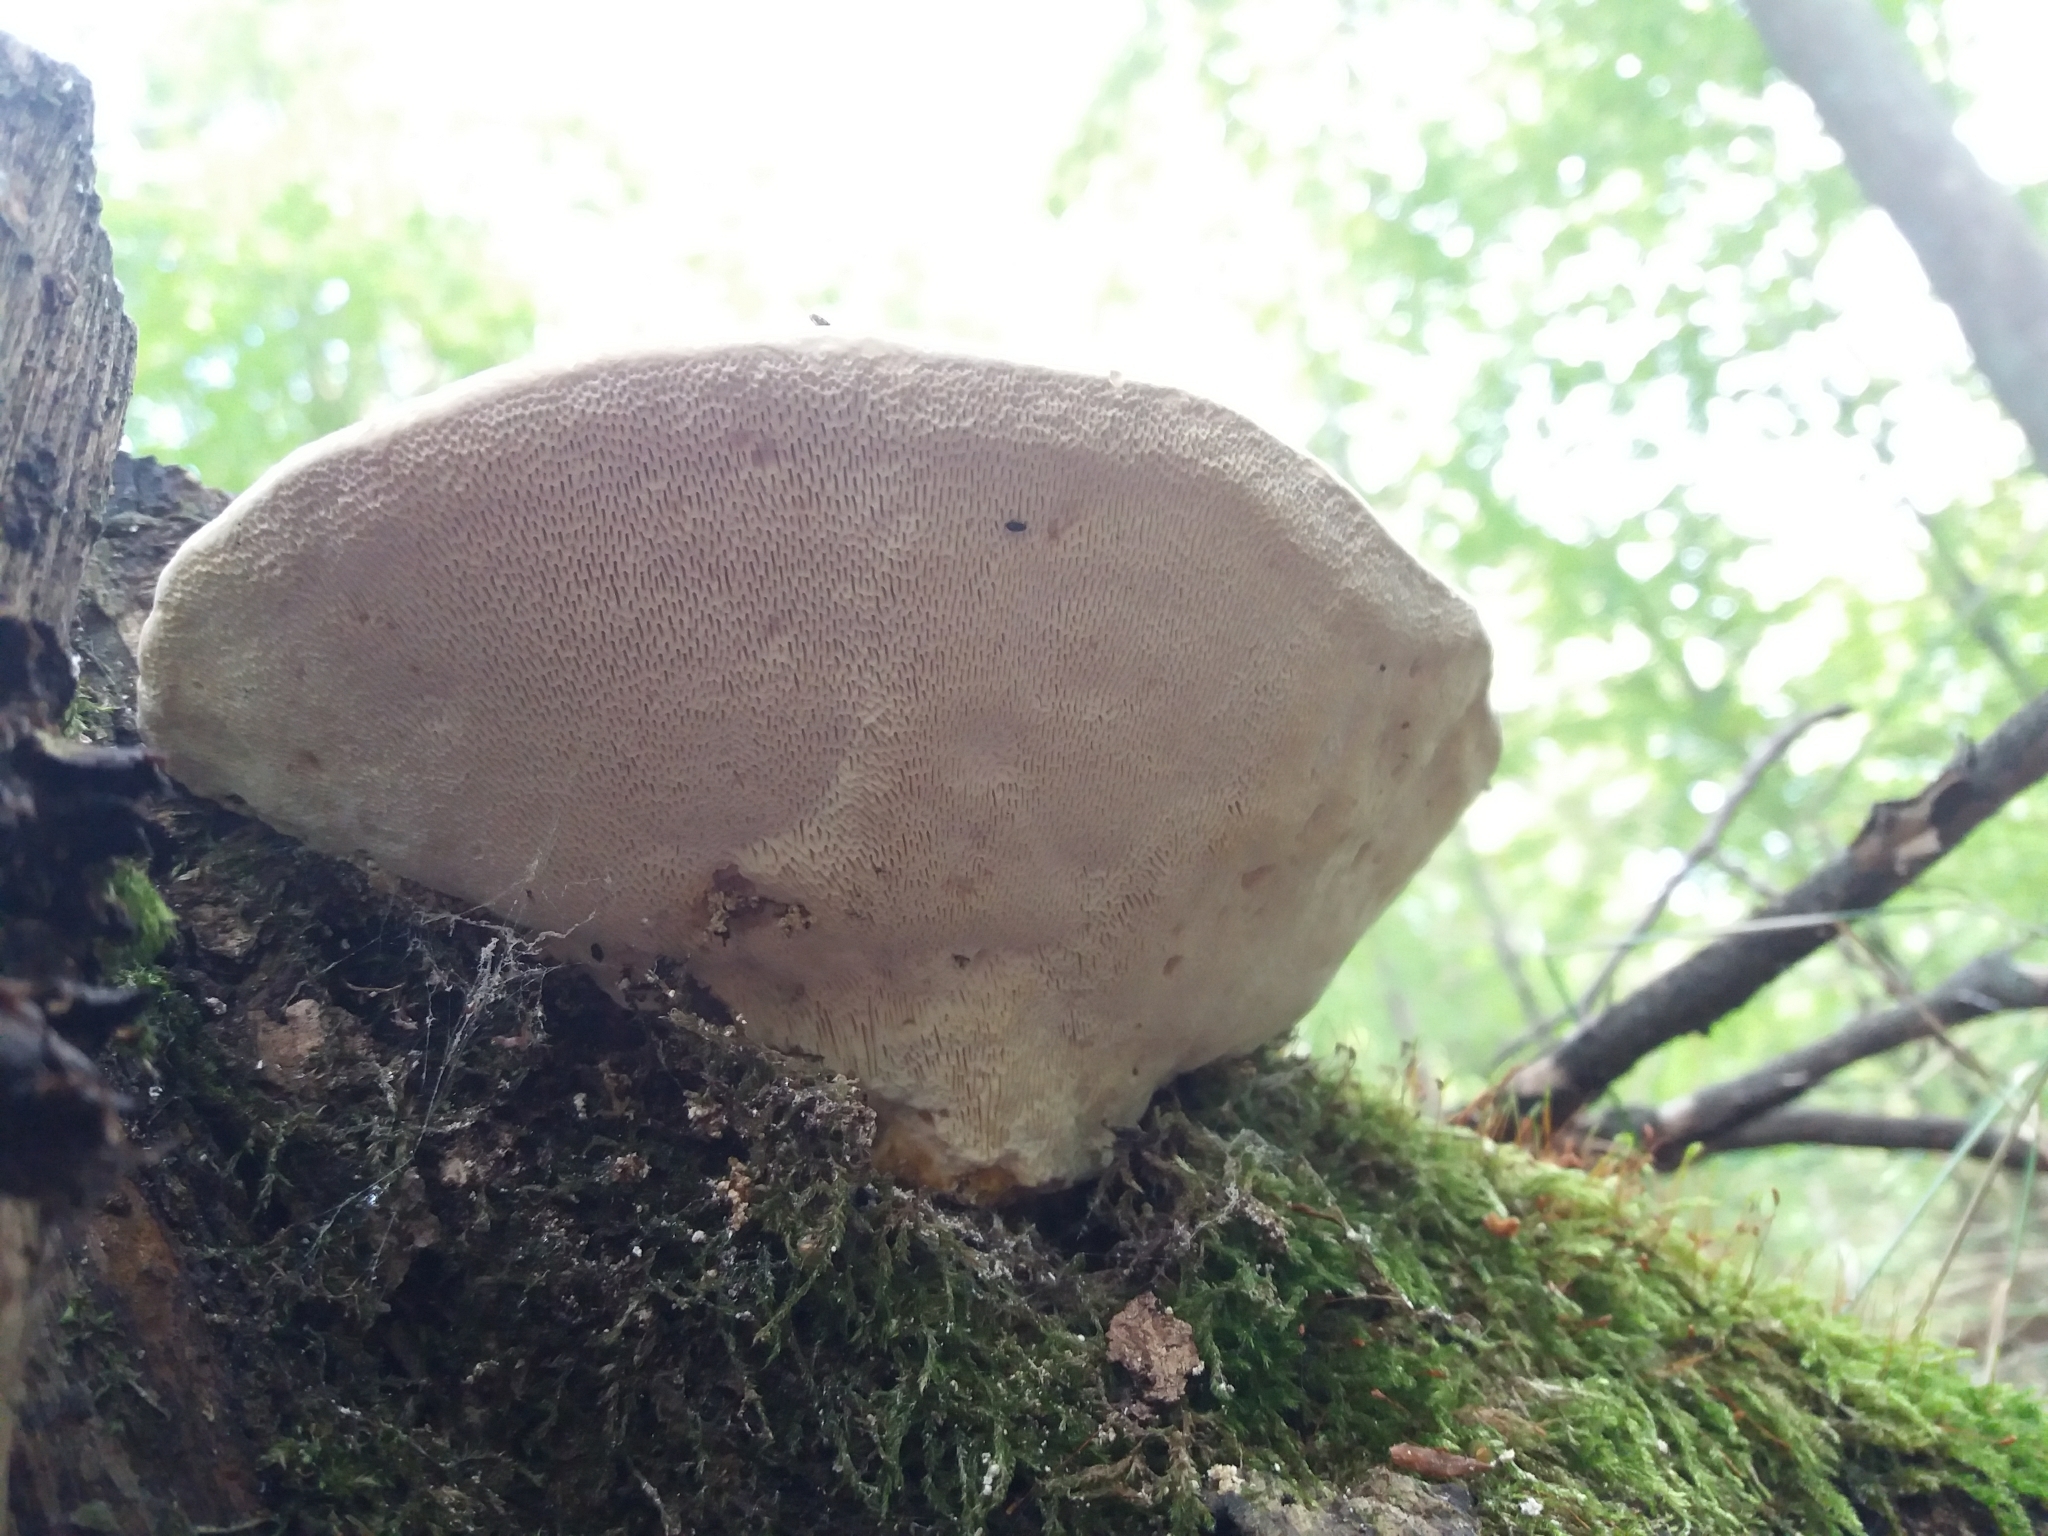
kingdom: Fungi
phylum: Basidiomycota
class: Agaricomycetes
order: Polyporales
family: Polyporaceae
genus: Trametes
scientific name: Trametes gibbosa
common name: Lumpy bracket
